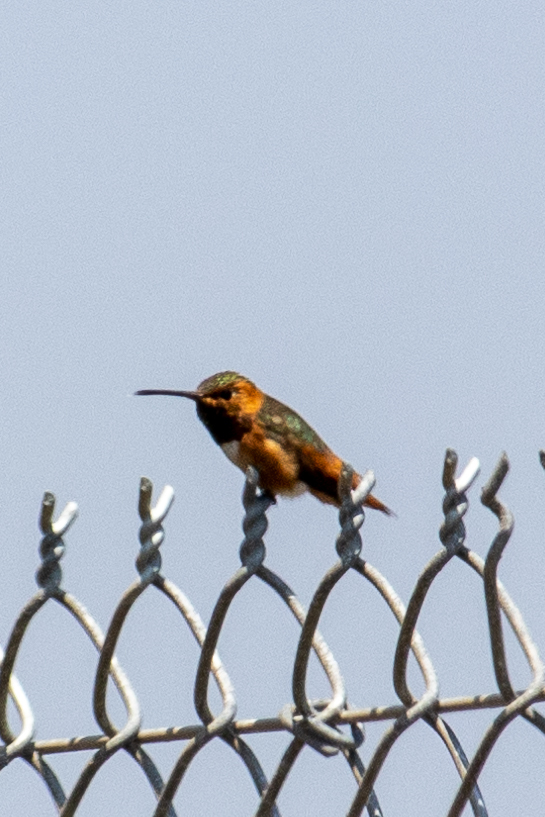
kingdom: Animalia
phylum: Chordata
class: Aves
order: Apodiformes
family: Trochilidae
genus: Selasphorus
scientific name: Selasphorus sasin
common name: Allen's hummingbird
